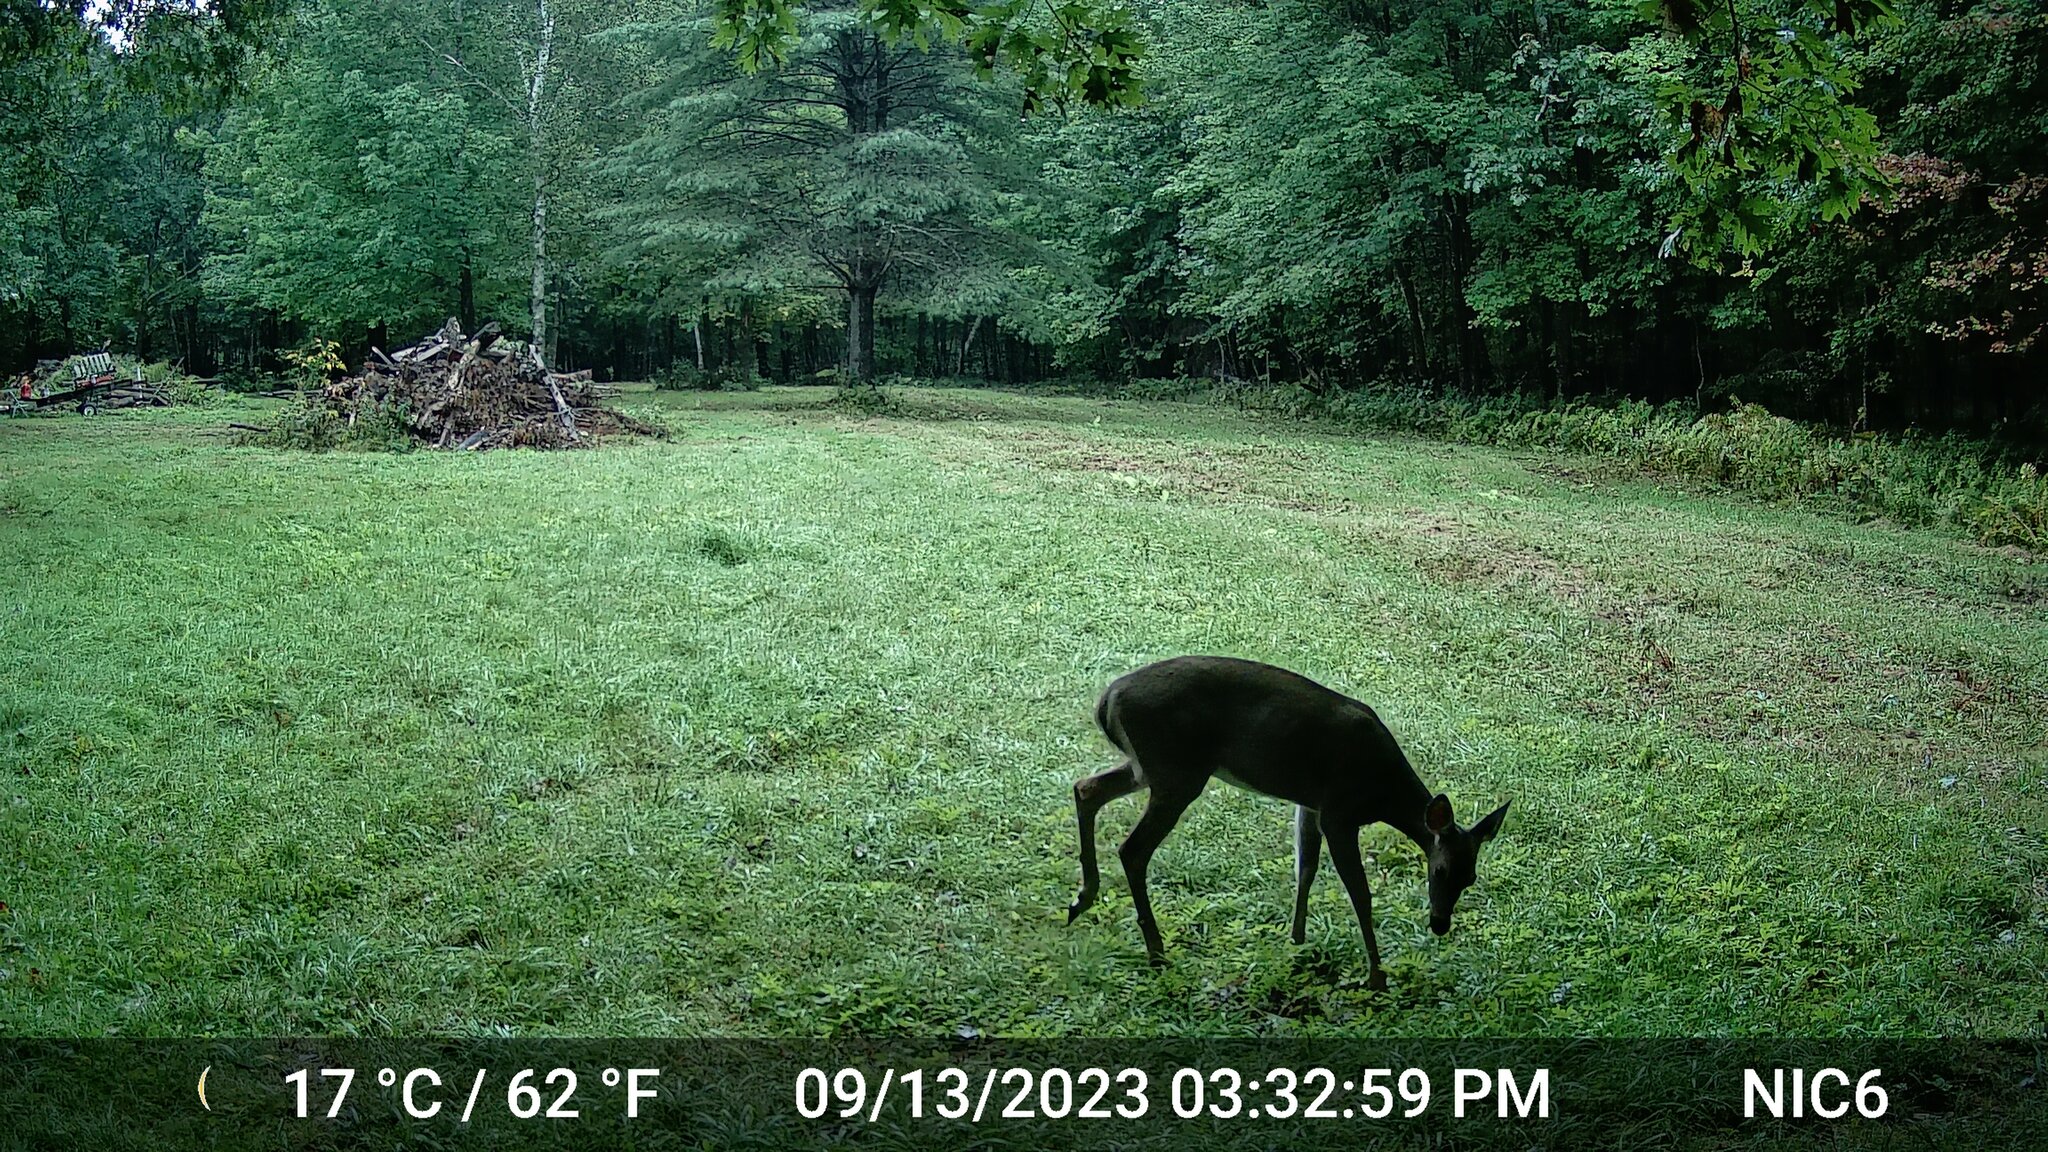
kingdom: Animalia
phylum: Chordata
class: Mammalia
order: Artiodactyla
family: Cervidae
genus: Odocoileus
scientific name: Odocoileus virginianus
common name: White-tailed deer
